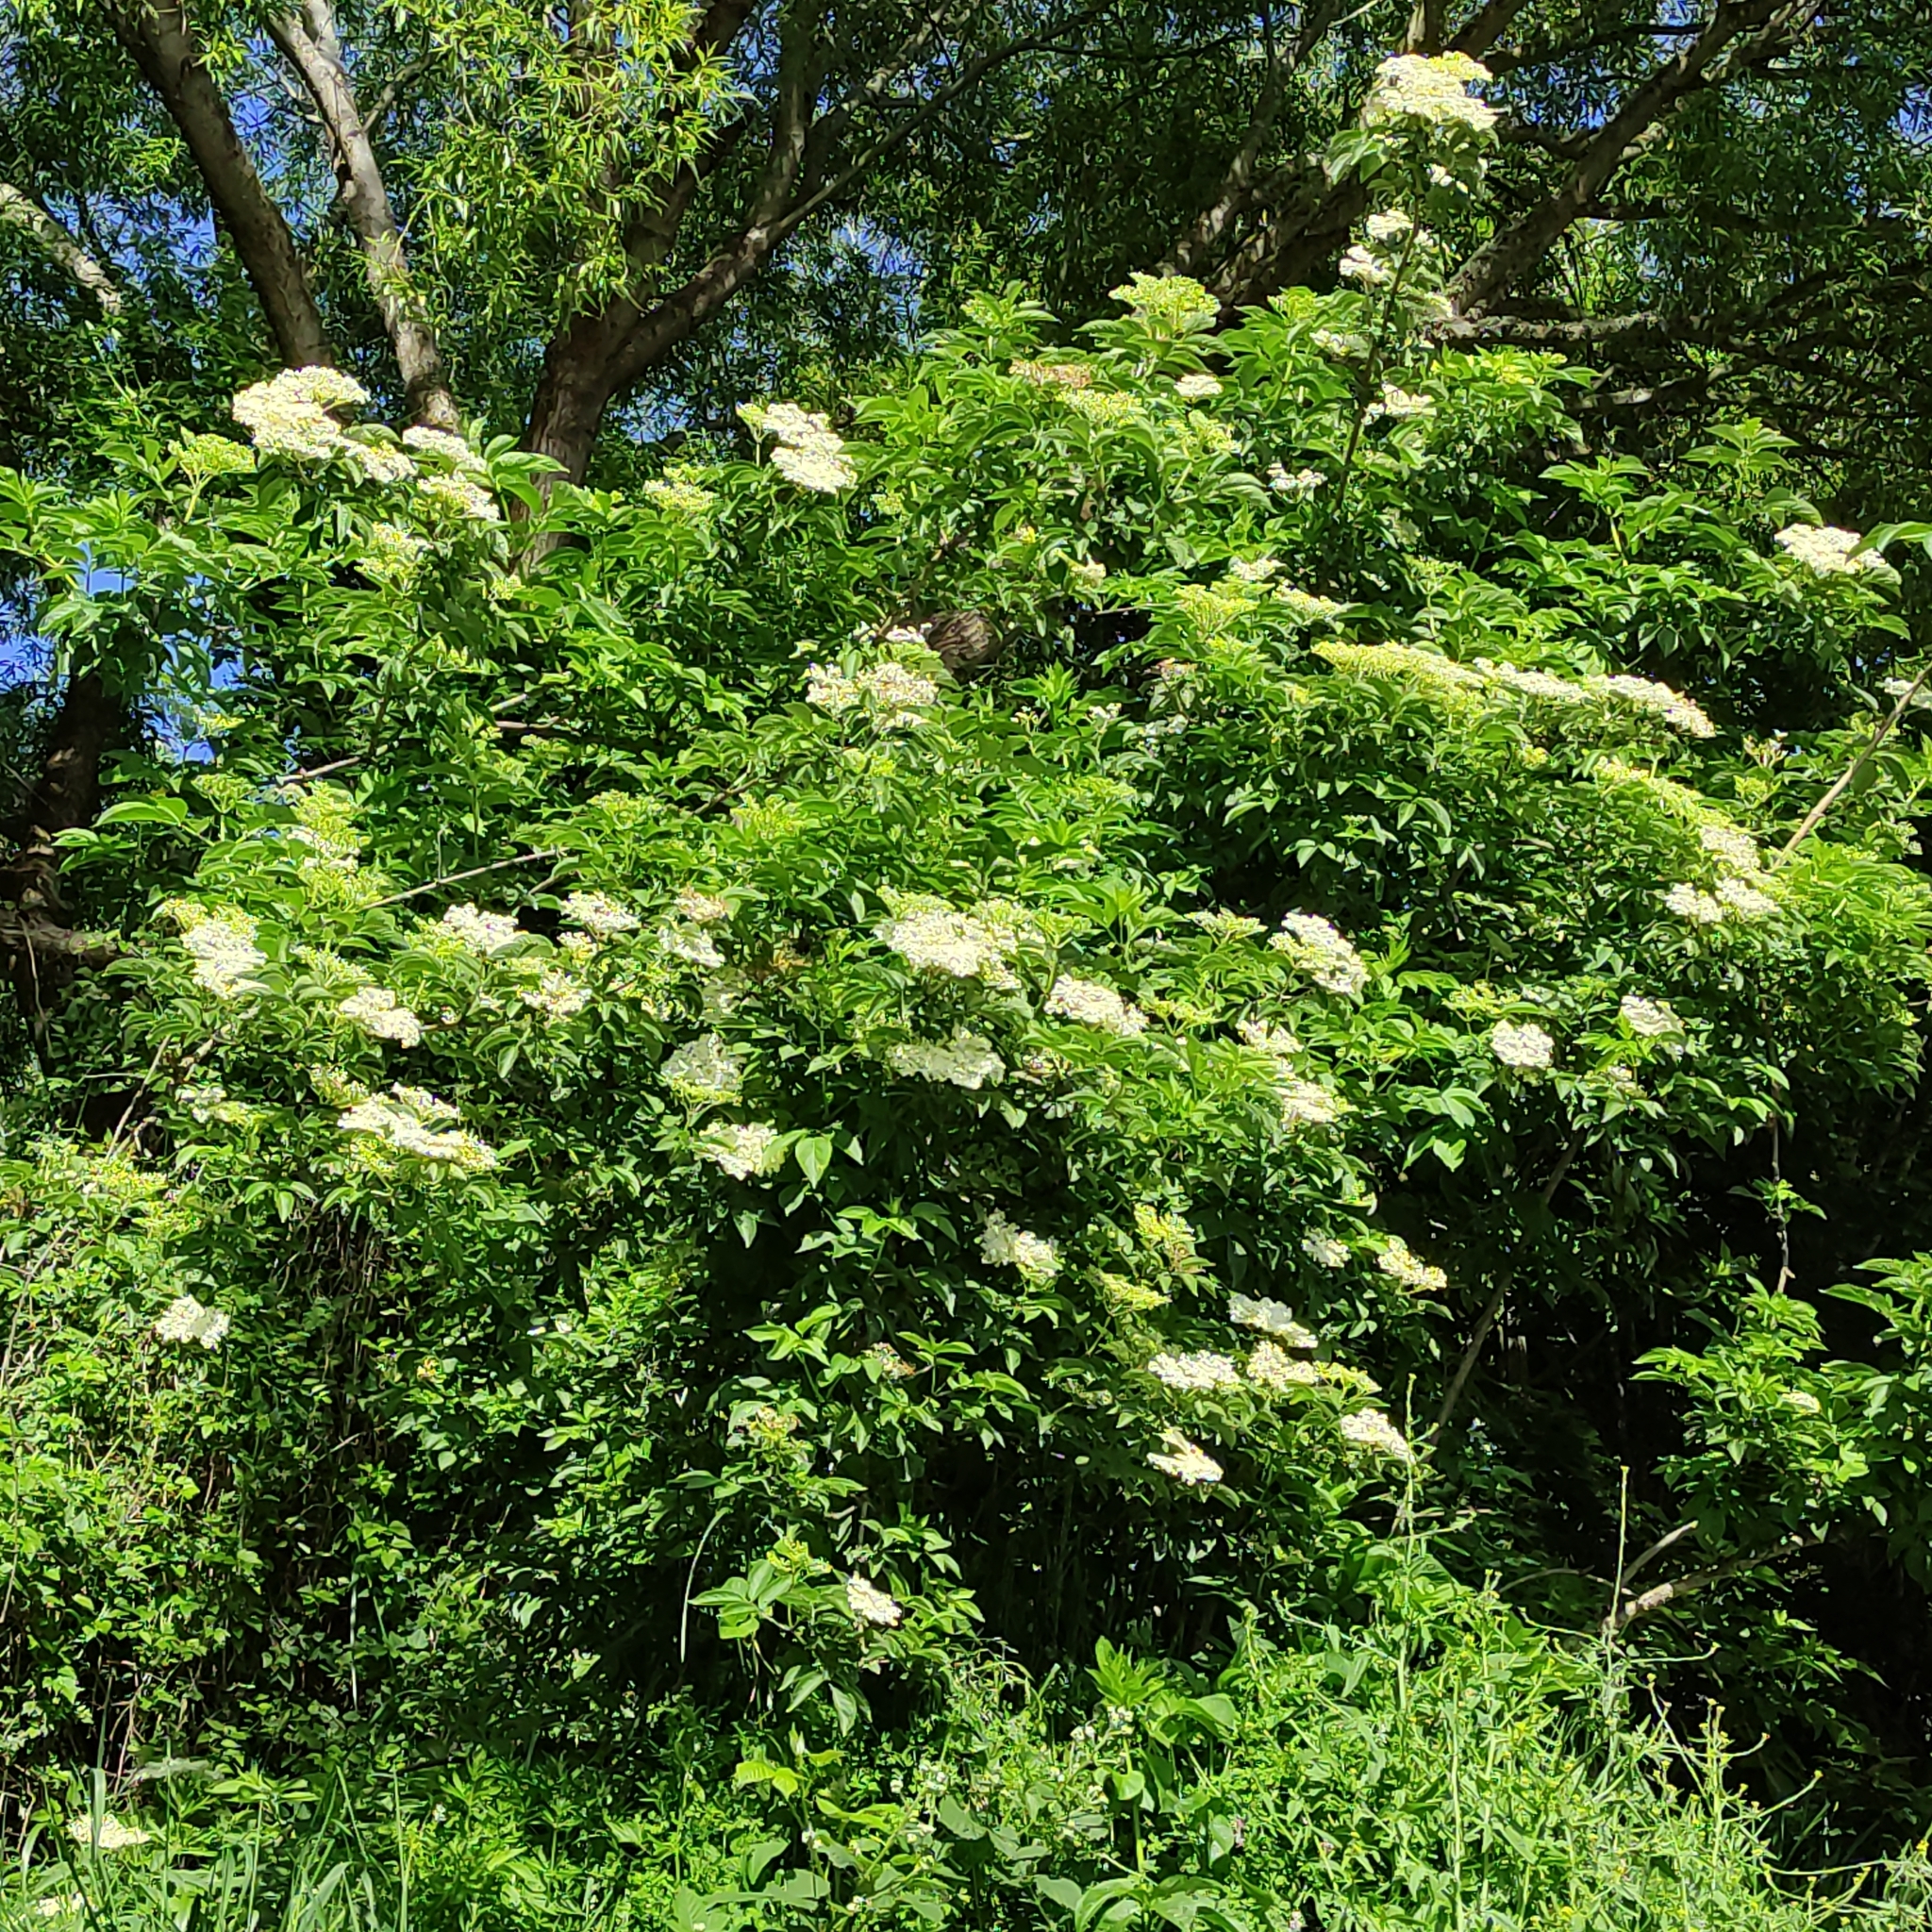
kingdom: Plantae
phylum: Tracheophyta
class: Magnoliopsida
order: Dipsacales
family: Viburnaceae
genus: Sambucus
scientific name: Sambucus nigra
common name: Elder
